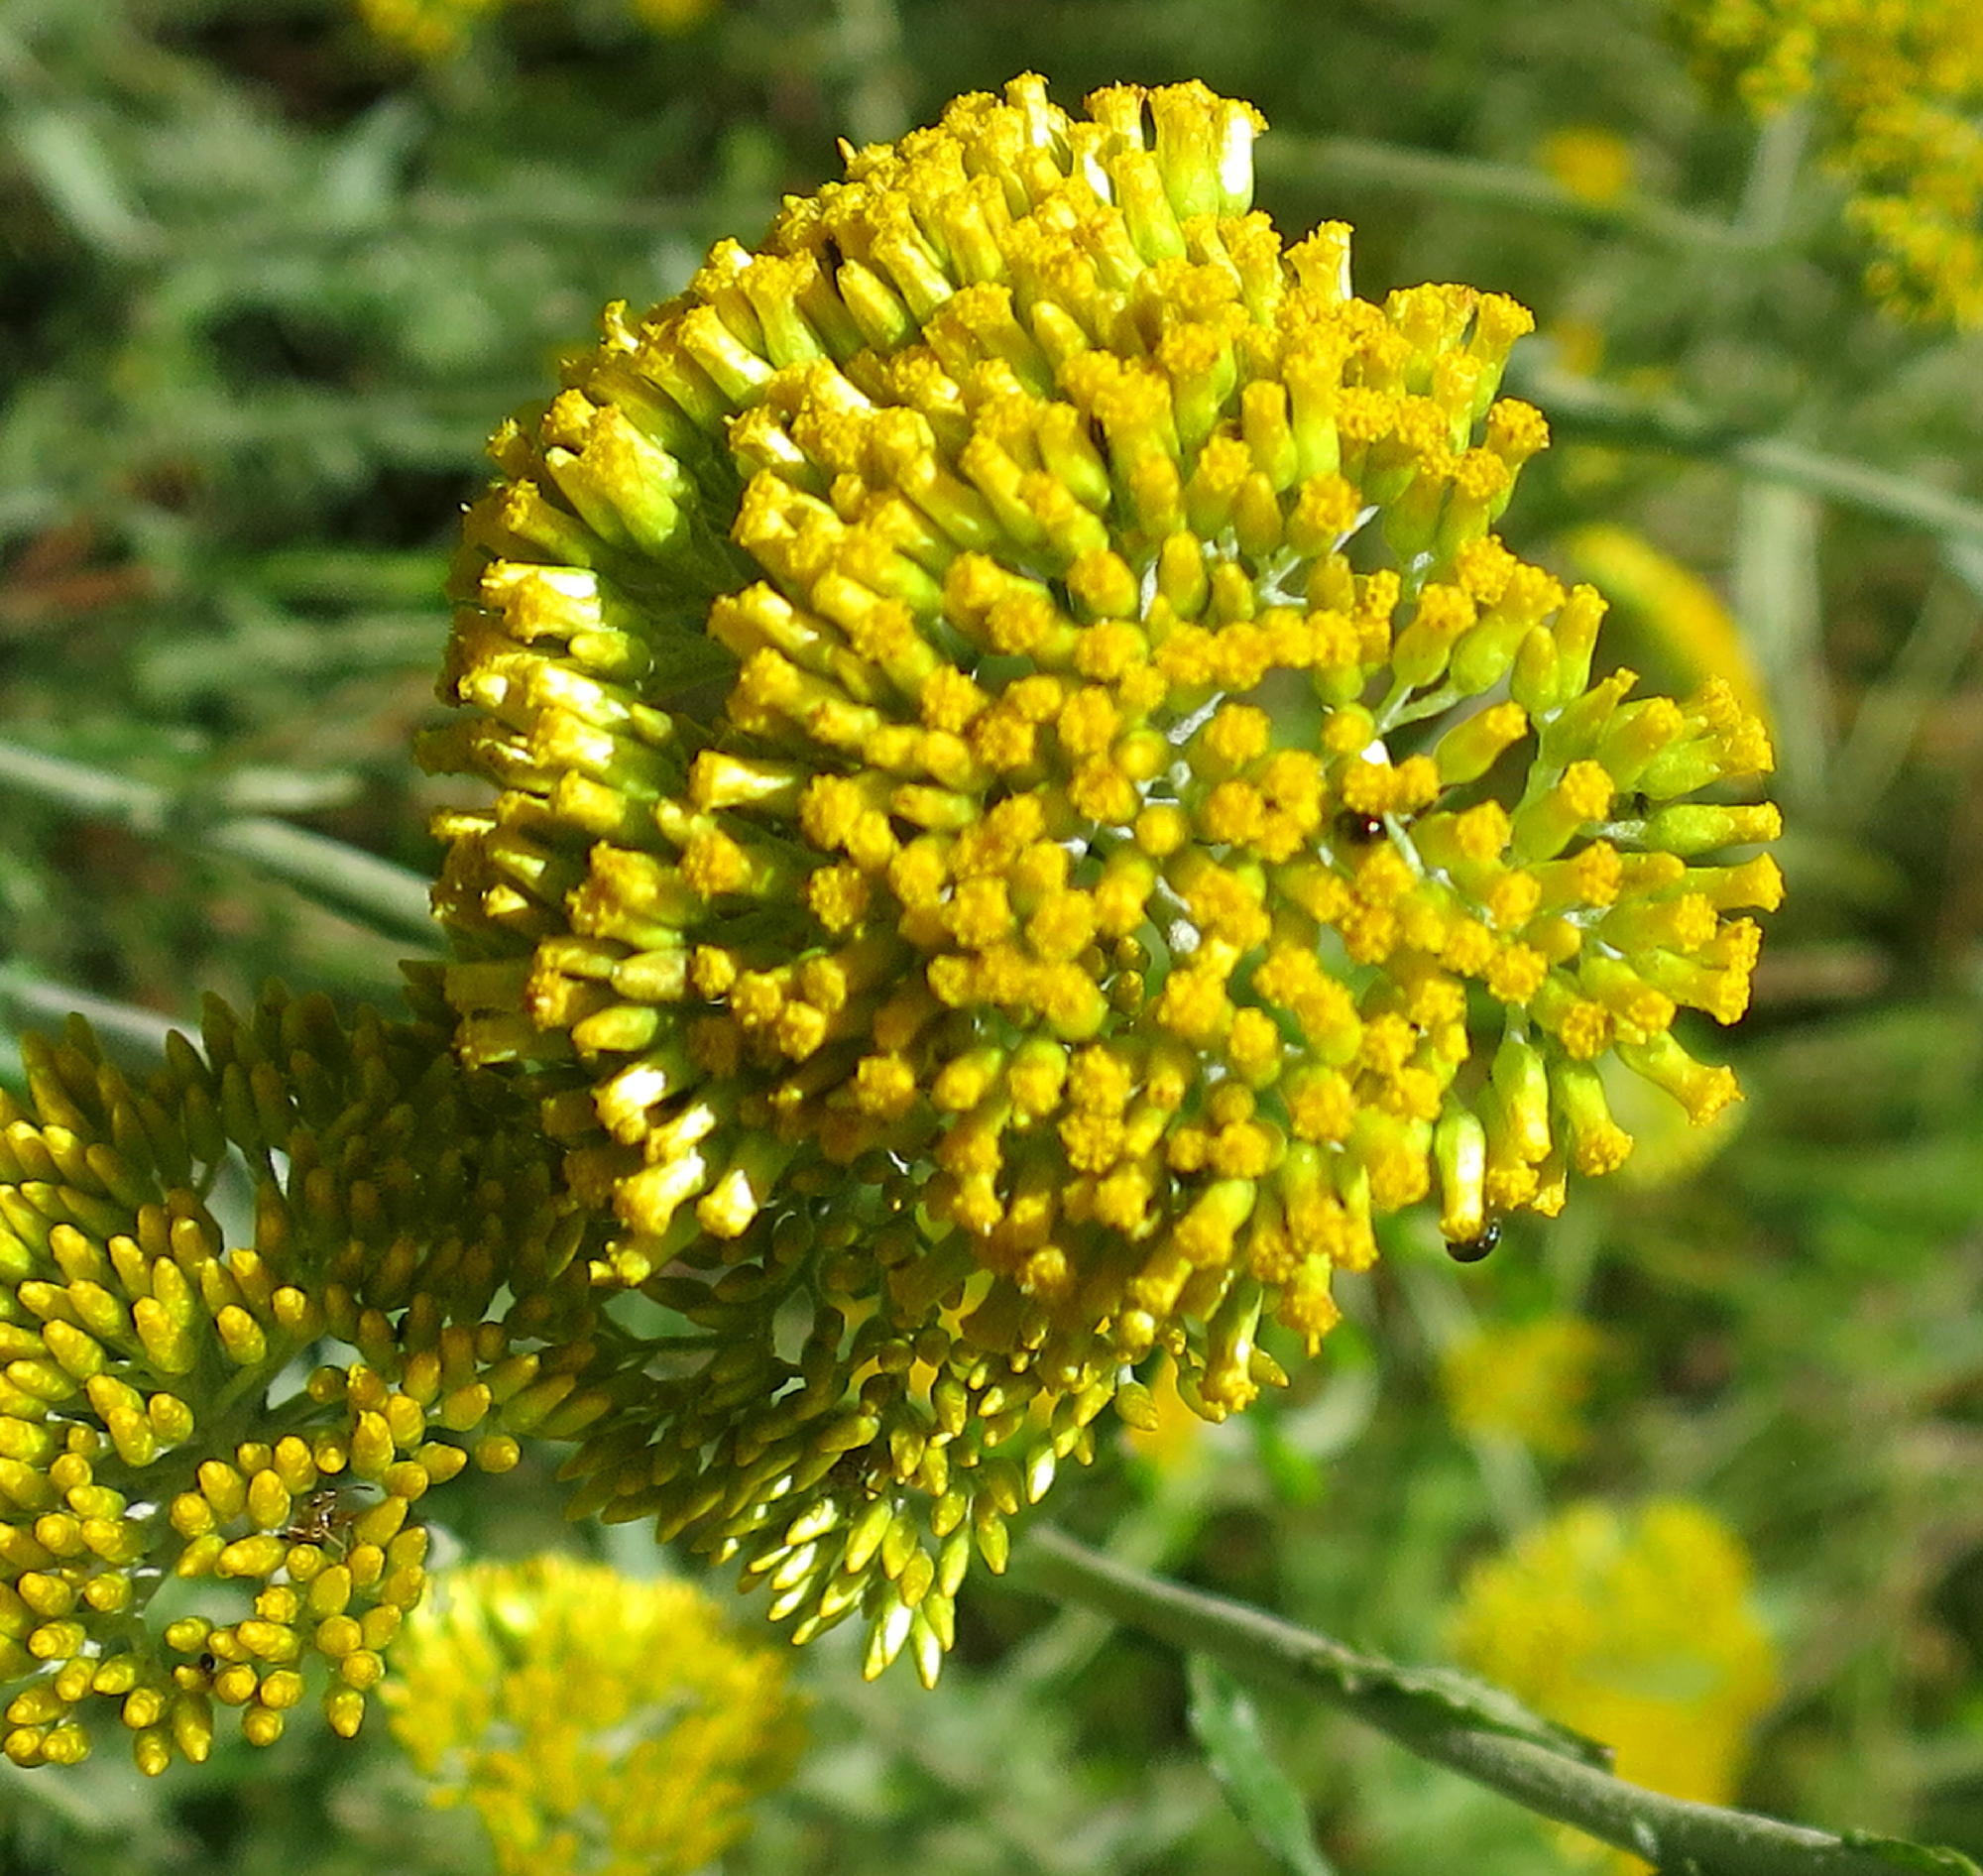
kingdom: Plantae
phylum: Tracheophyta
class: Magnoliopsida
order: Asterales
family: Asteraceae
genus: Helichrysum
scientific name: Helichrysum cymosum
